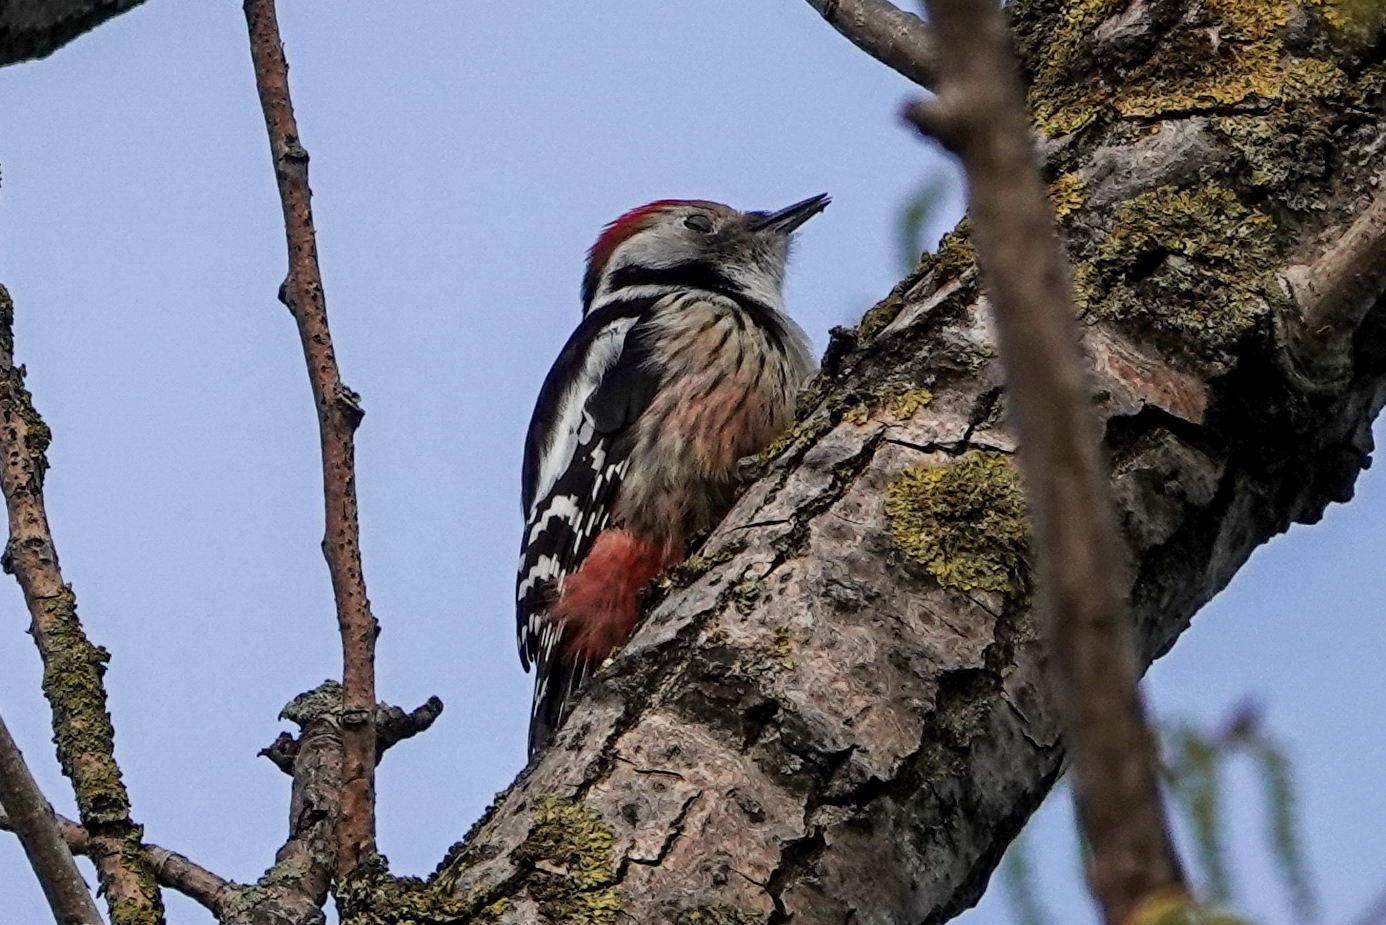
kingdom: Animalia
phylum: Chordata
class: Aves
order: Piciformes
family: Picidae
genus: Dendrocoptes
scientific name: Dendrocoptes medius
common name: Middle spotted woodpecker
